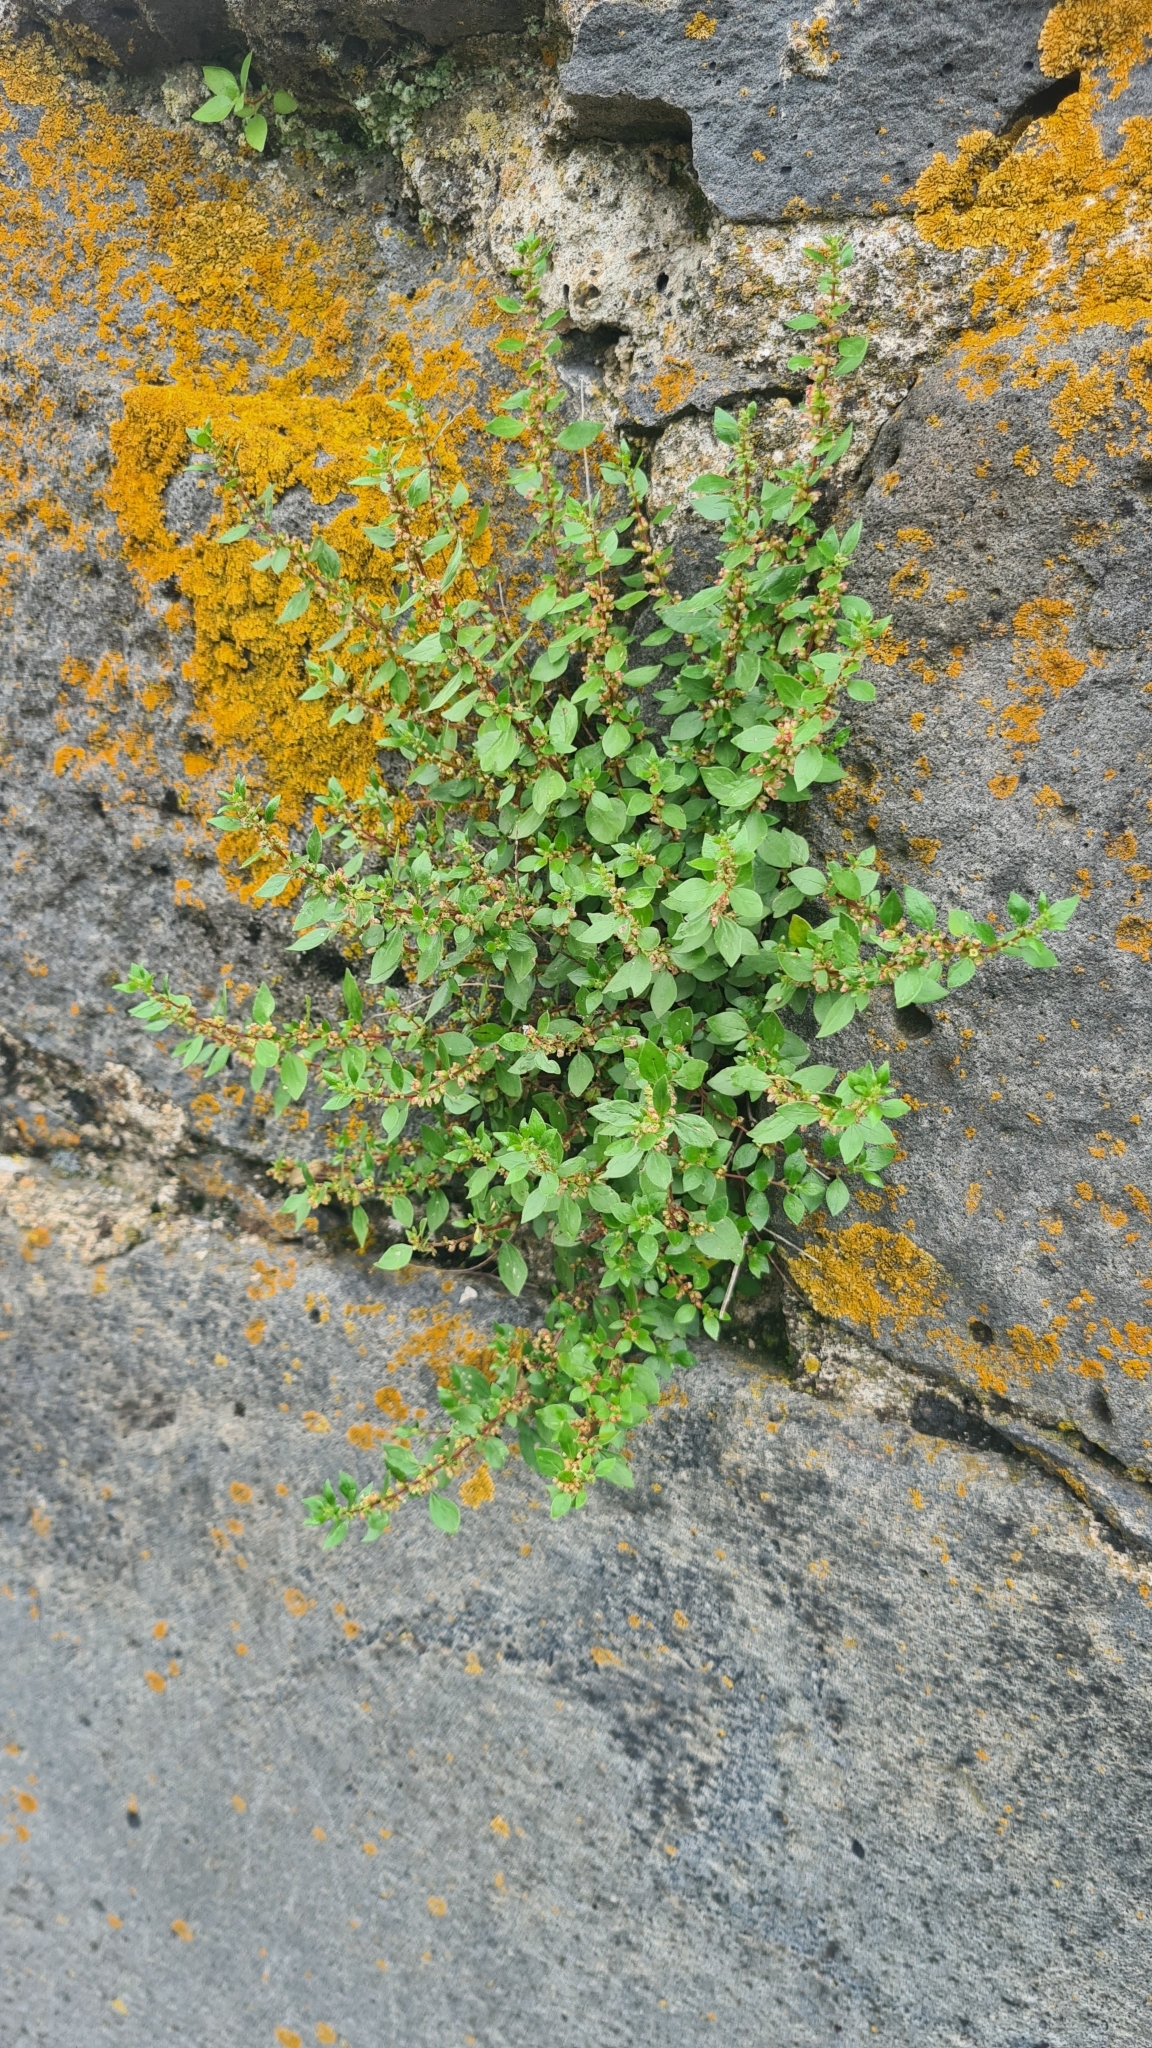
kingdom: Plantae
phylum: Tracheophyta
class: Magnoliopsida
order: Rosales
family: Urticaceae
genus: Parietaria
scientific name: Parietaria judaica
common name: Pellitory-of-the-wall
